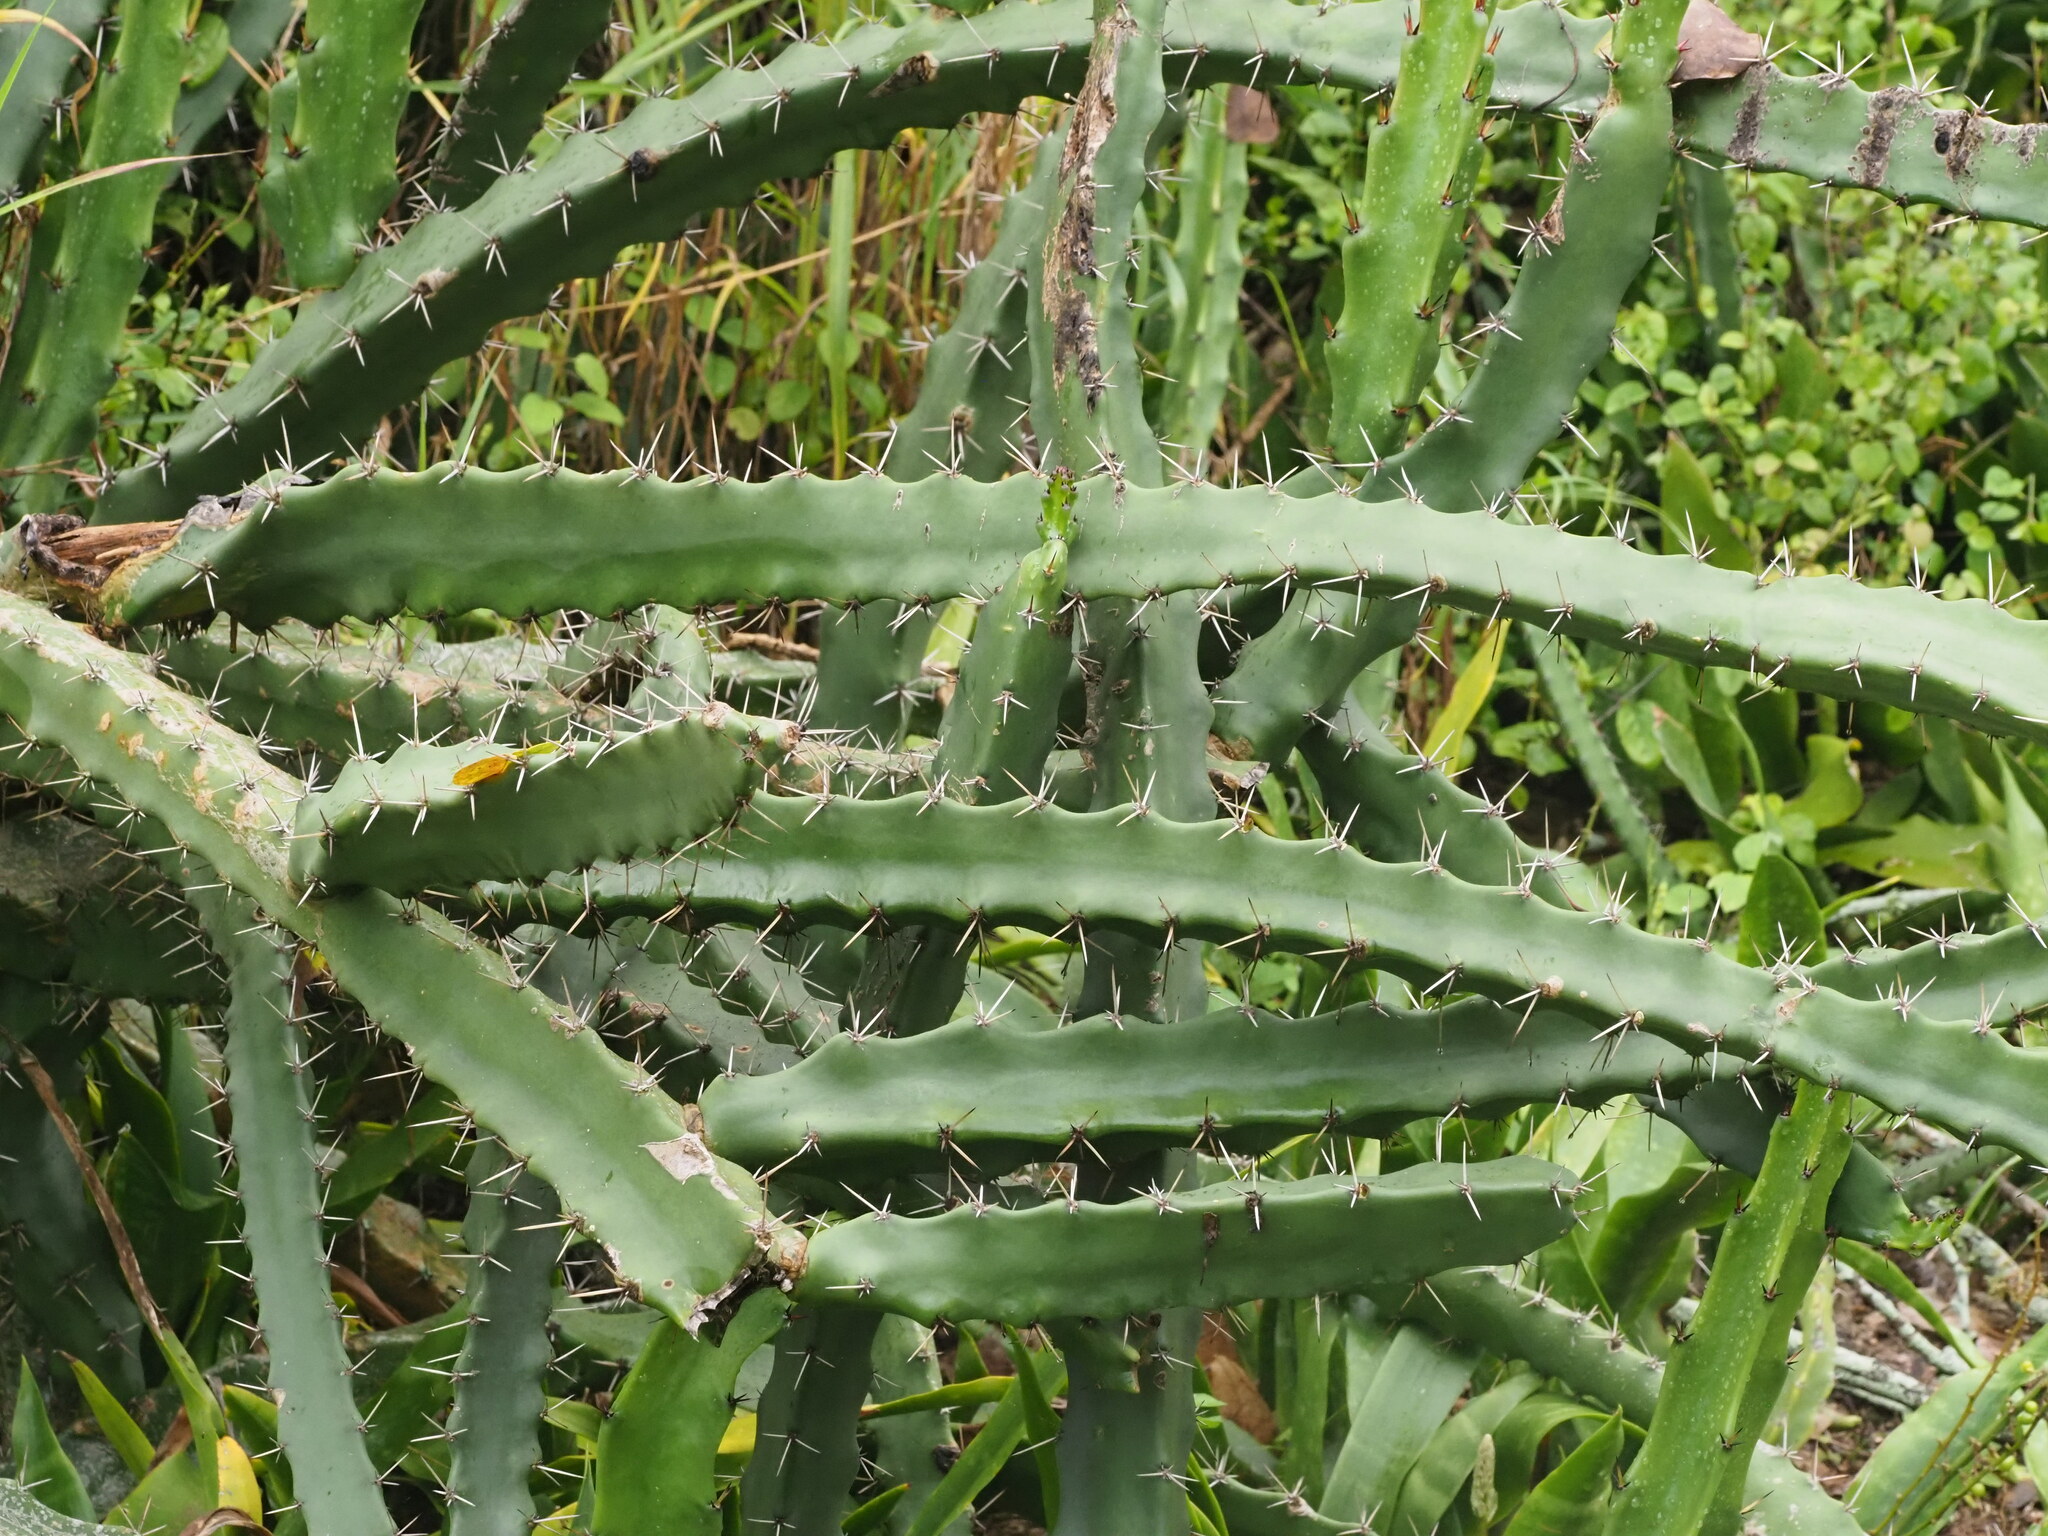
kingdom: Plantae
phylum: Tracheophyta
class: Magnoliopsida
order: Caryophyllales
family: Cactaceae
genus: Acanthocereus
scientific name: Acanthocereus tetragonus
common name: Triangle cactus
